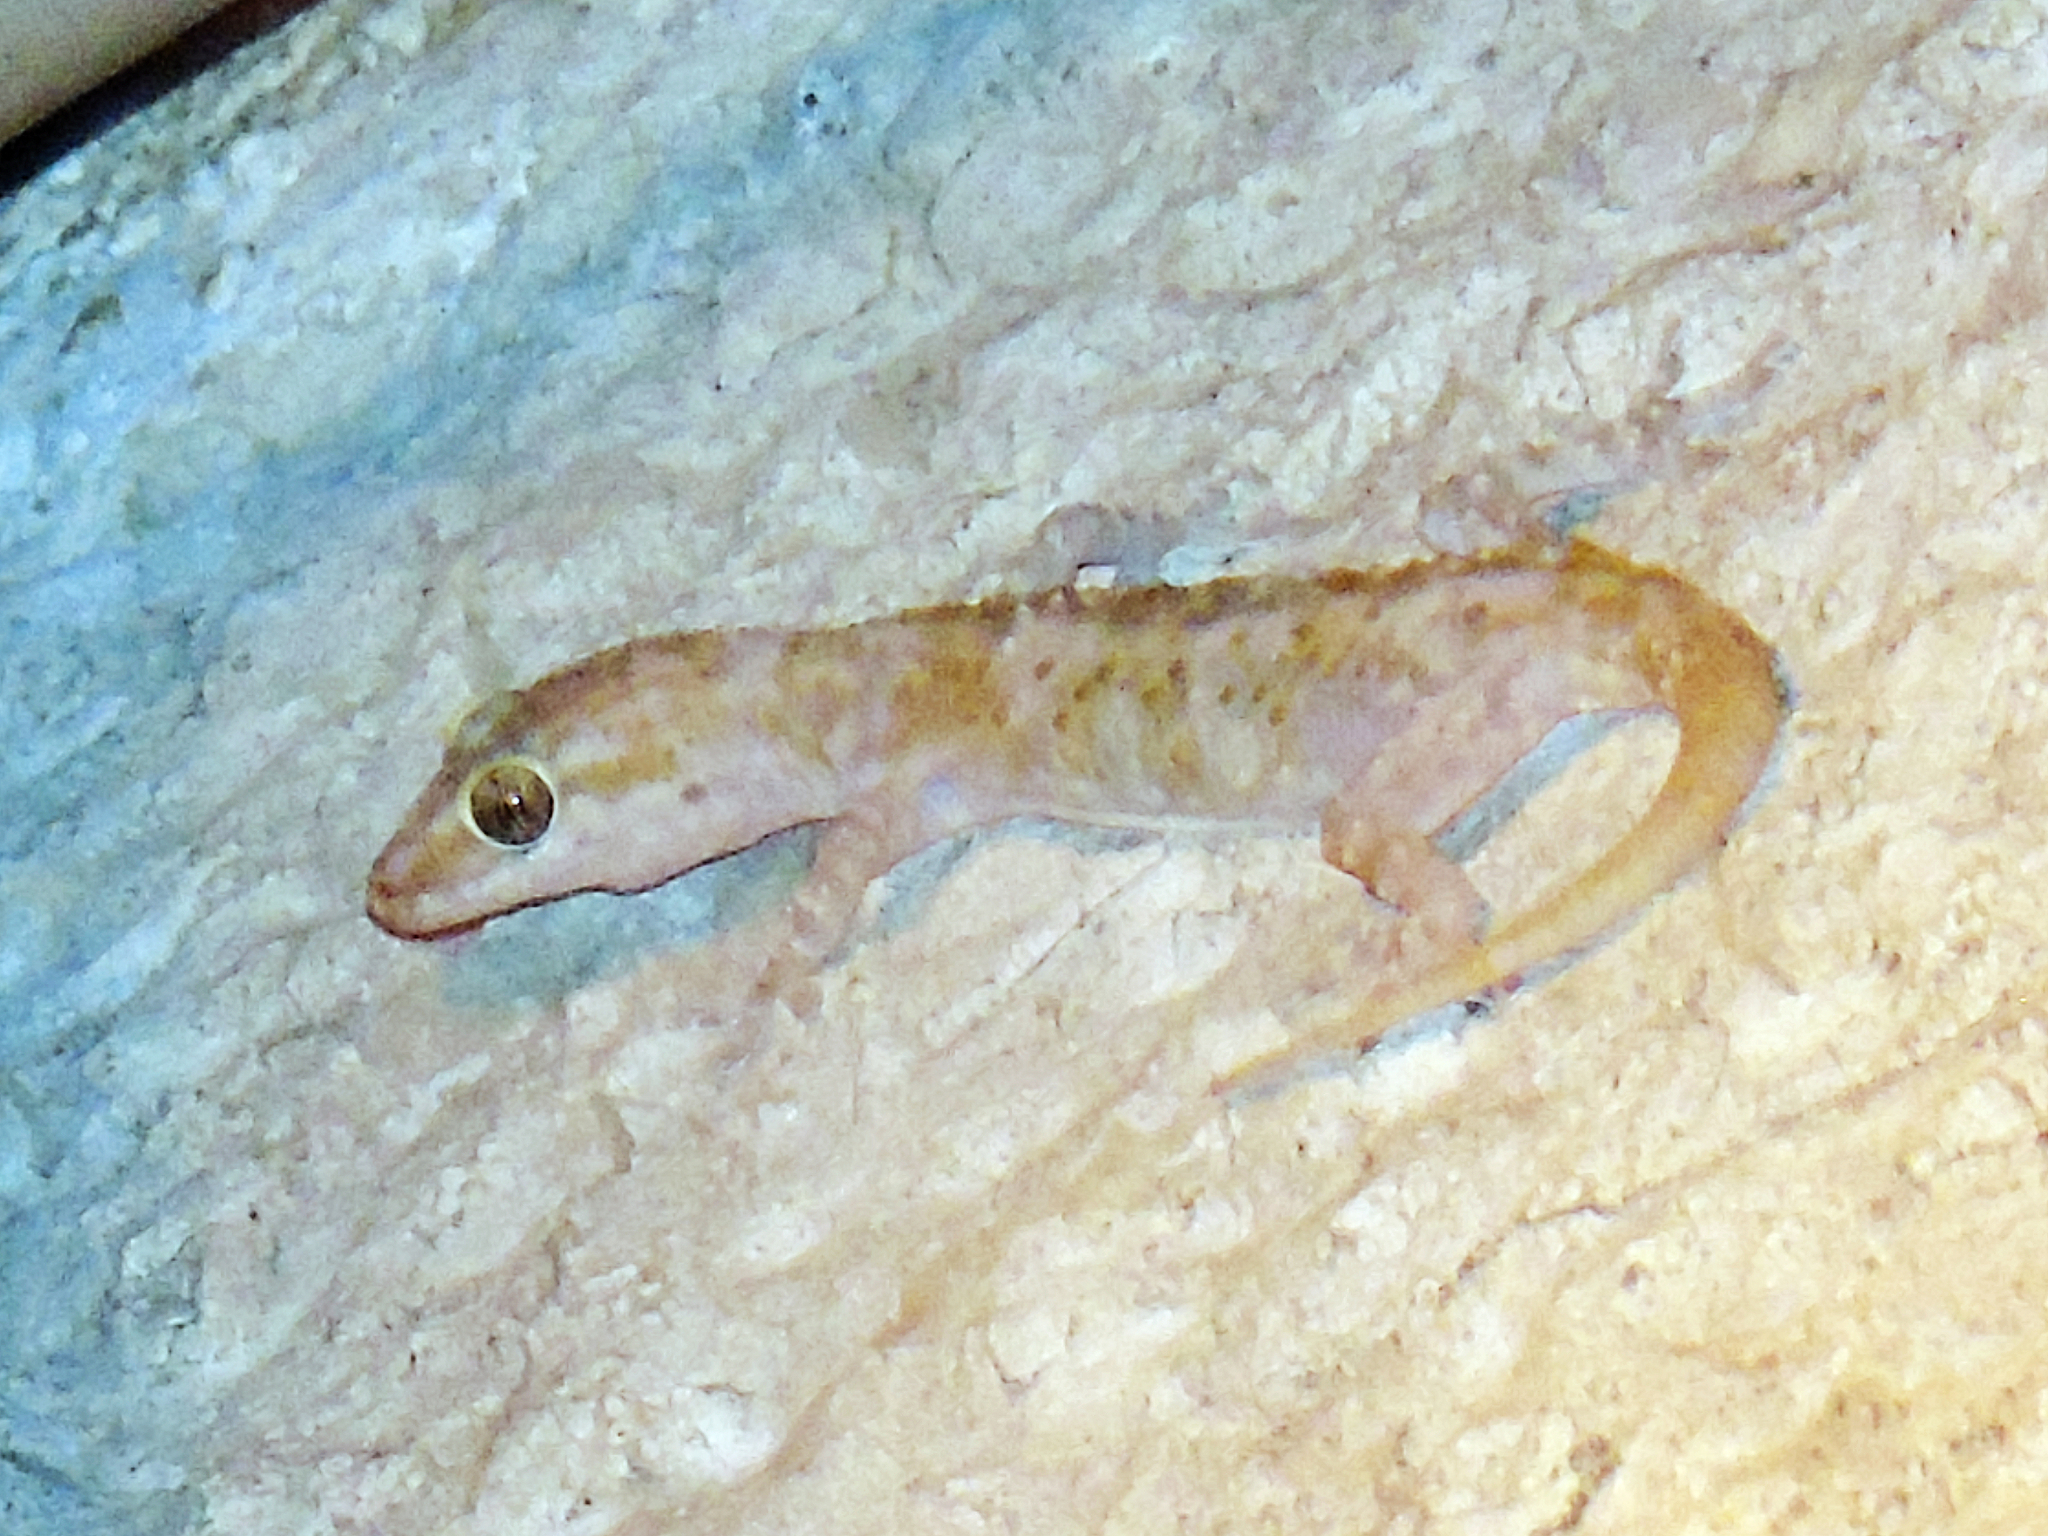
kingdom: Animalia
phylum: Chordata
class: Squamata
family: Gekkonidae
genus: Hemidactylus
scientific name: Hemidactylus turcicus
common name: Turkish gecko
